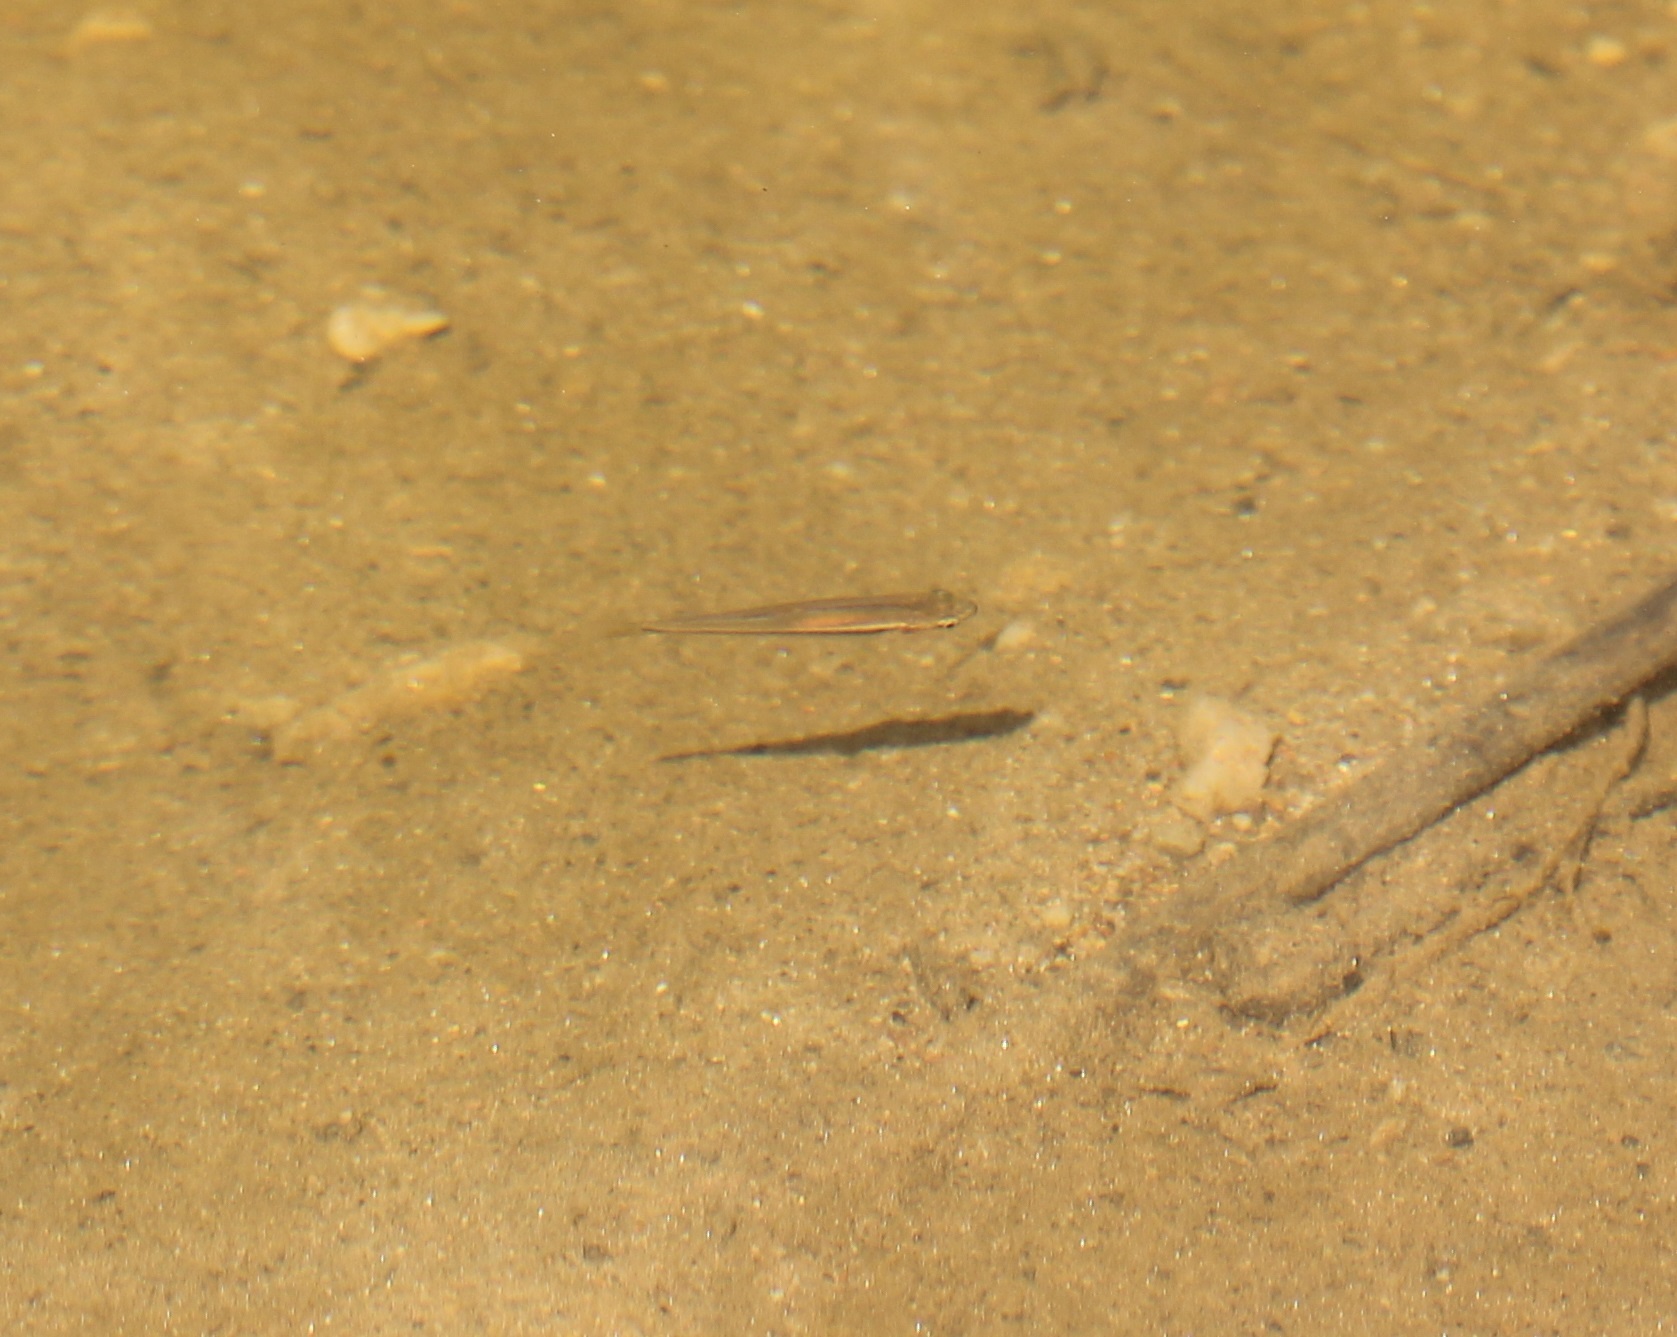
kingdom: Animalia
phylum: Chordata
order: Cypriniformes
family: Cyprinidae
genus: Rhinichthys
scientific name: Rhinichthys atratulus
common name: Eastern blacknose dace
